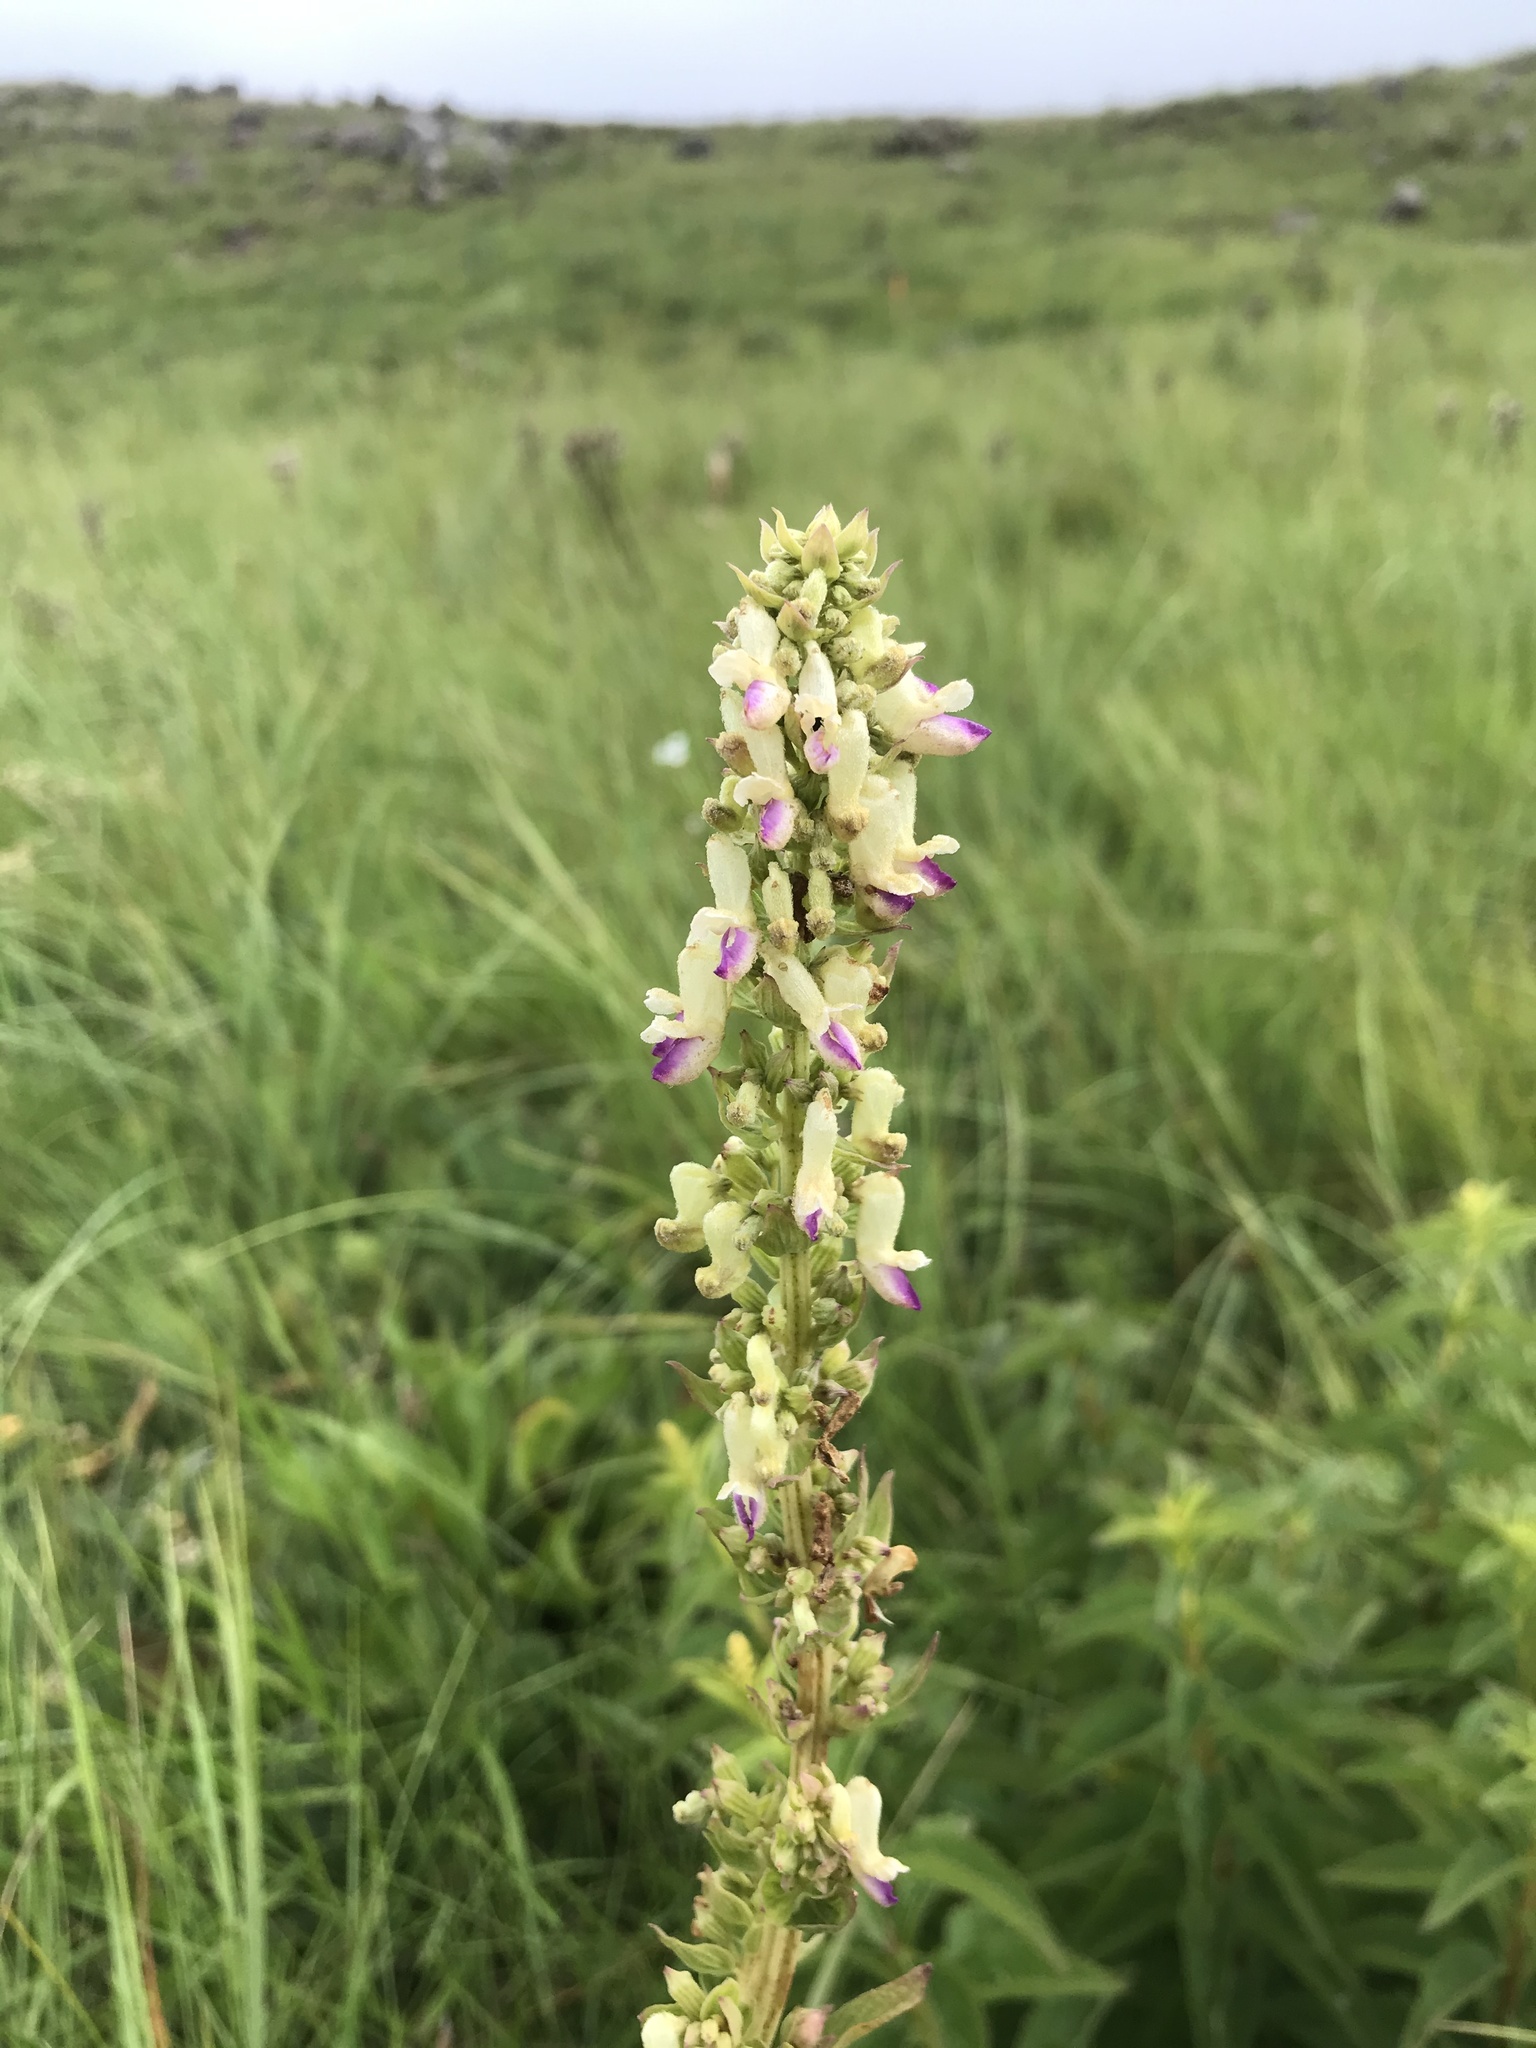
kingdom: Plantae
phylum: Tracheophyta
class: Magnoliopsida
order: Lamiales
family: Lamiaceae
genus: Coleus
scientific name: Coleus calycinus
